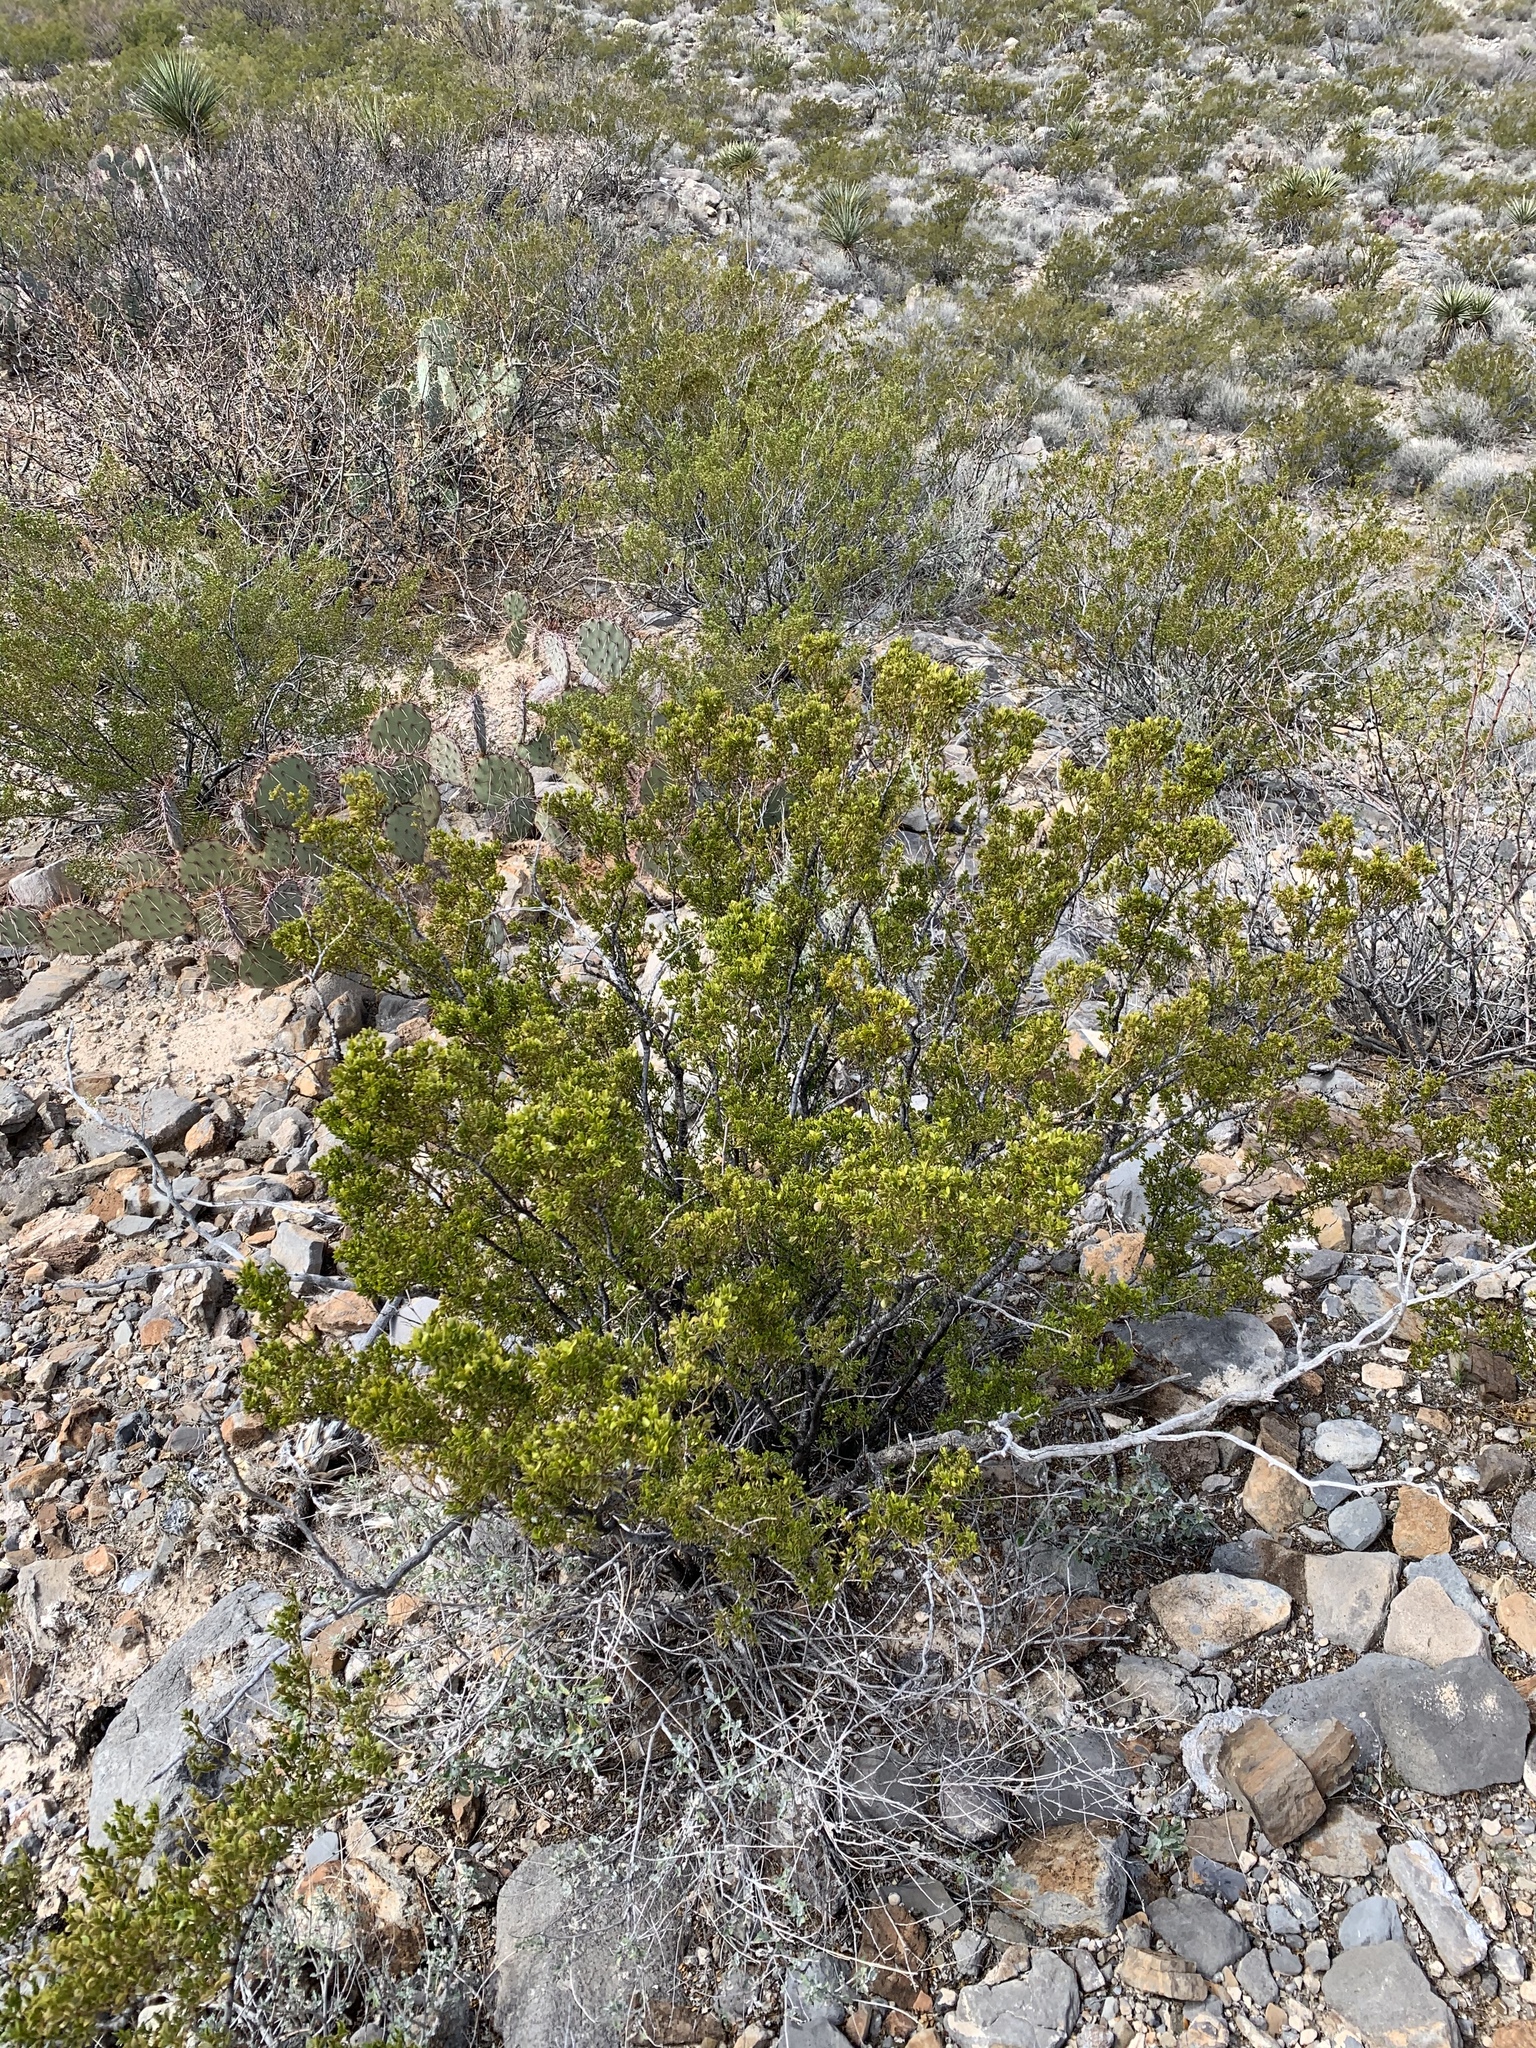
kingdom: Plantae
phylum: Tracheophyta
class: Magnoliopsida
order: Zygophyllales
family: Zygophyllaceae
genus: Larrea
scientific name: Larrea tridentata
